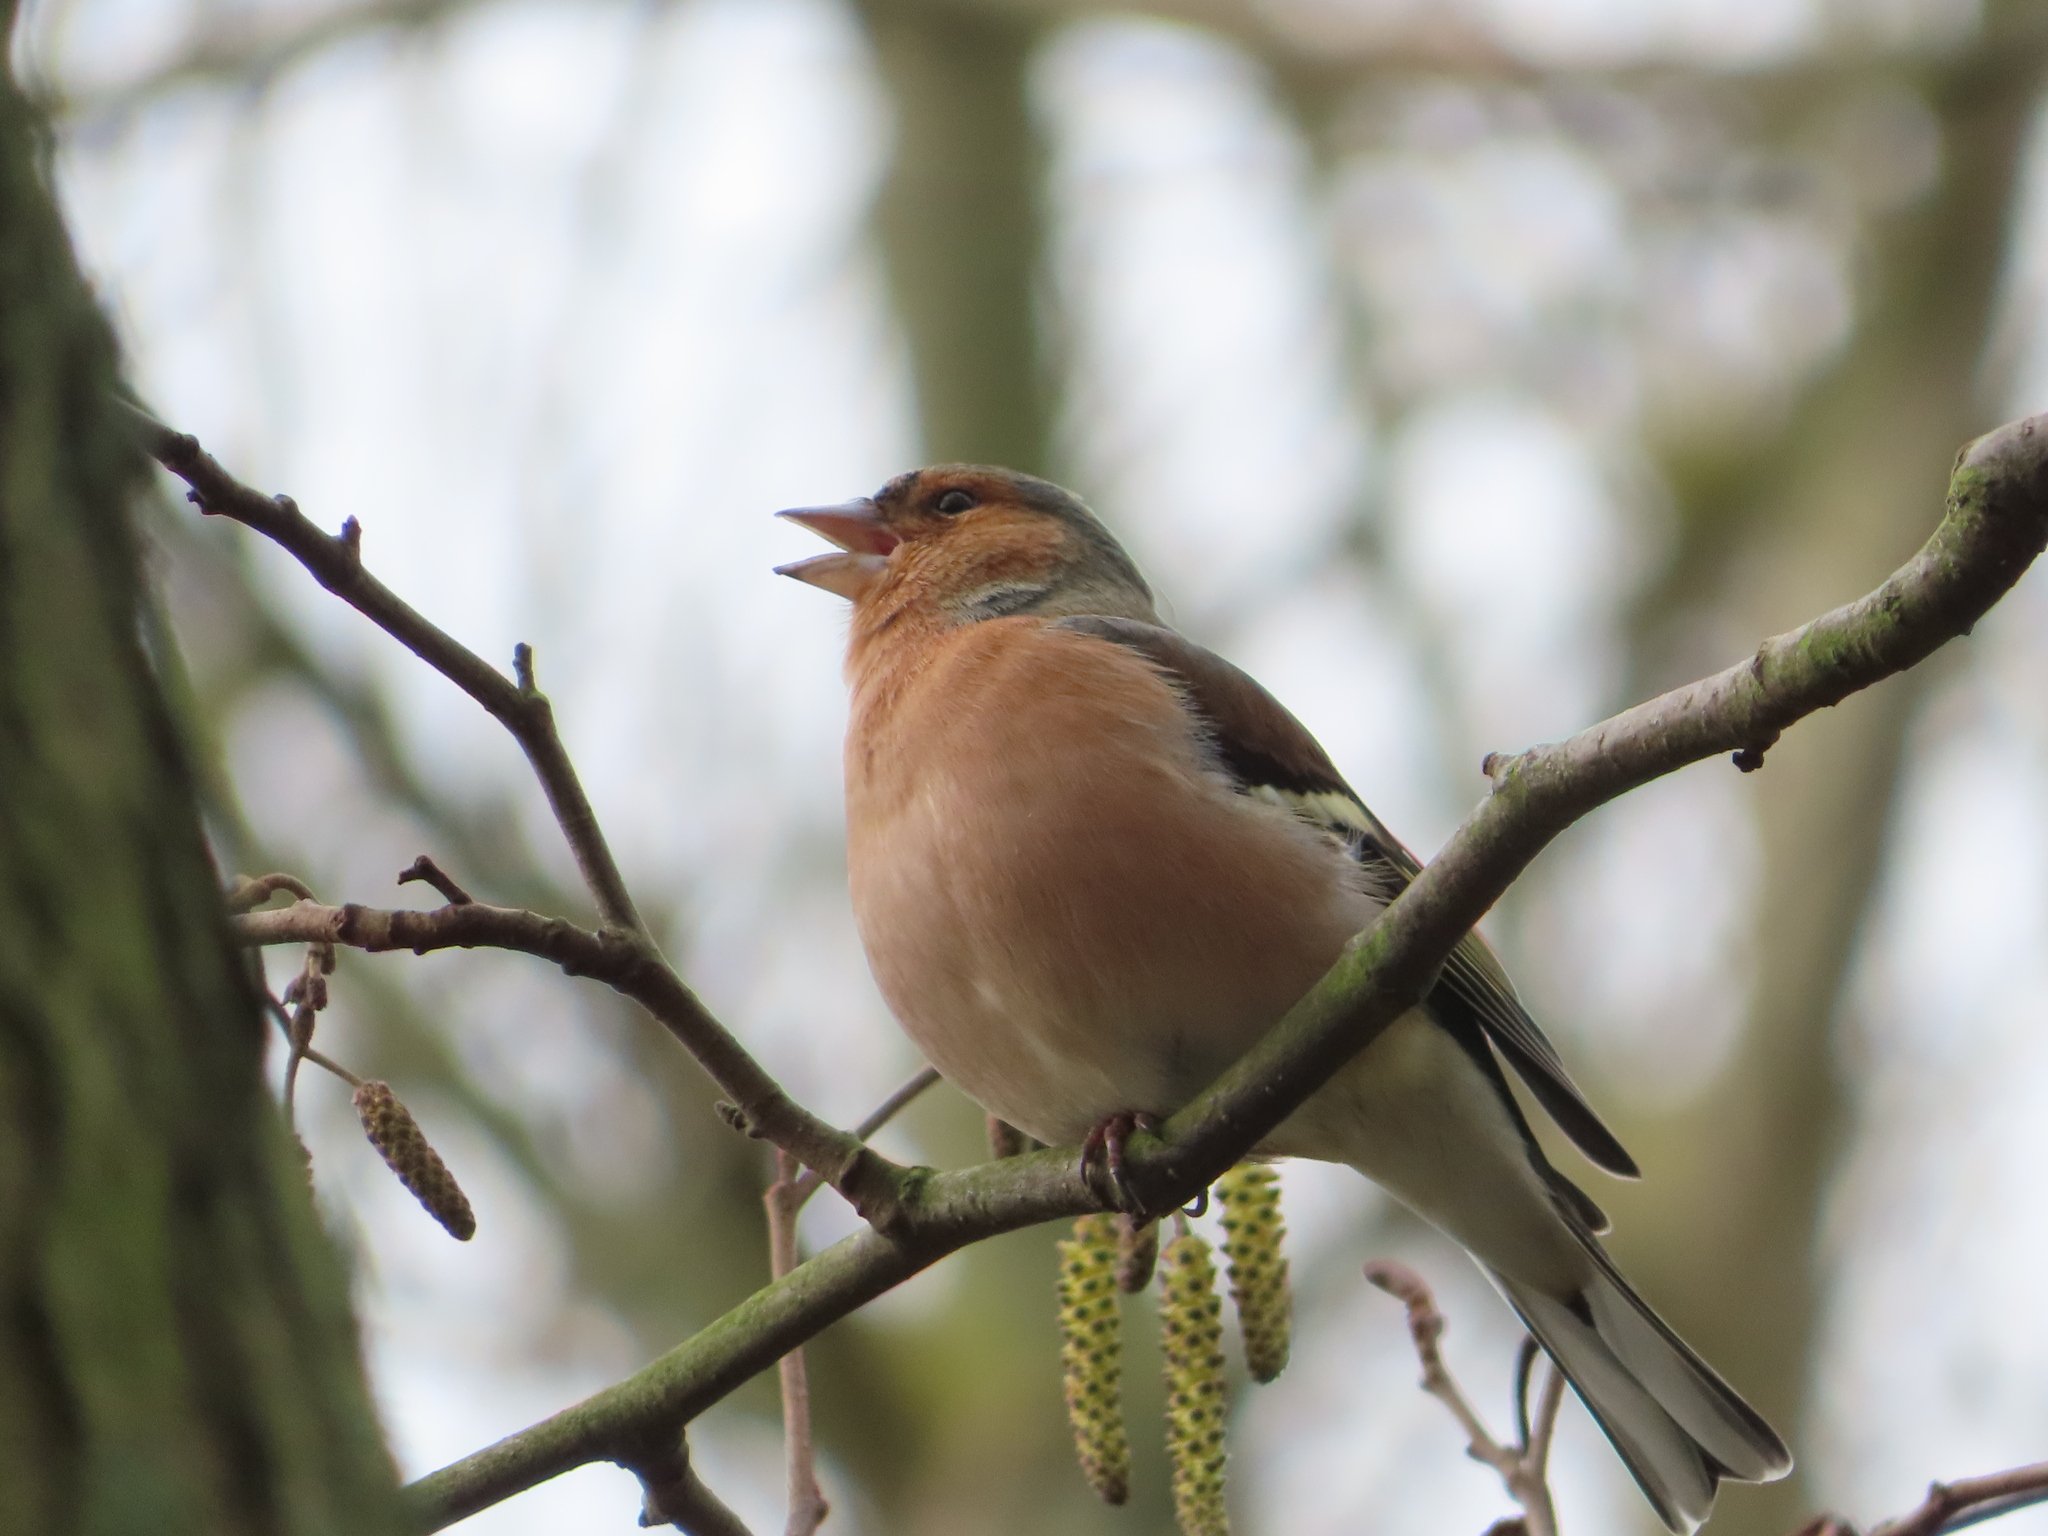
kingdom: Animalia
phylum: Chordata
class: Aves
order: Passeriformes
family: Fringillidae
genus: Fringilla
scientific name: Fringilla coelebs
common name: Common chaffinch
